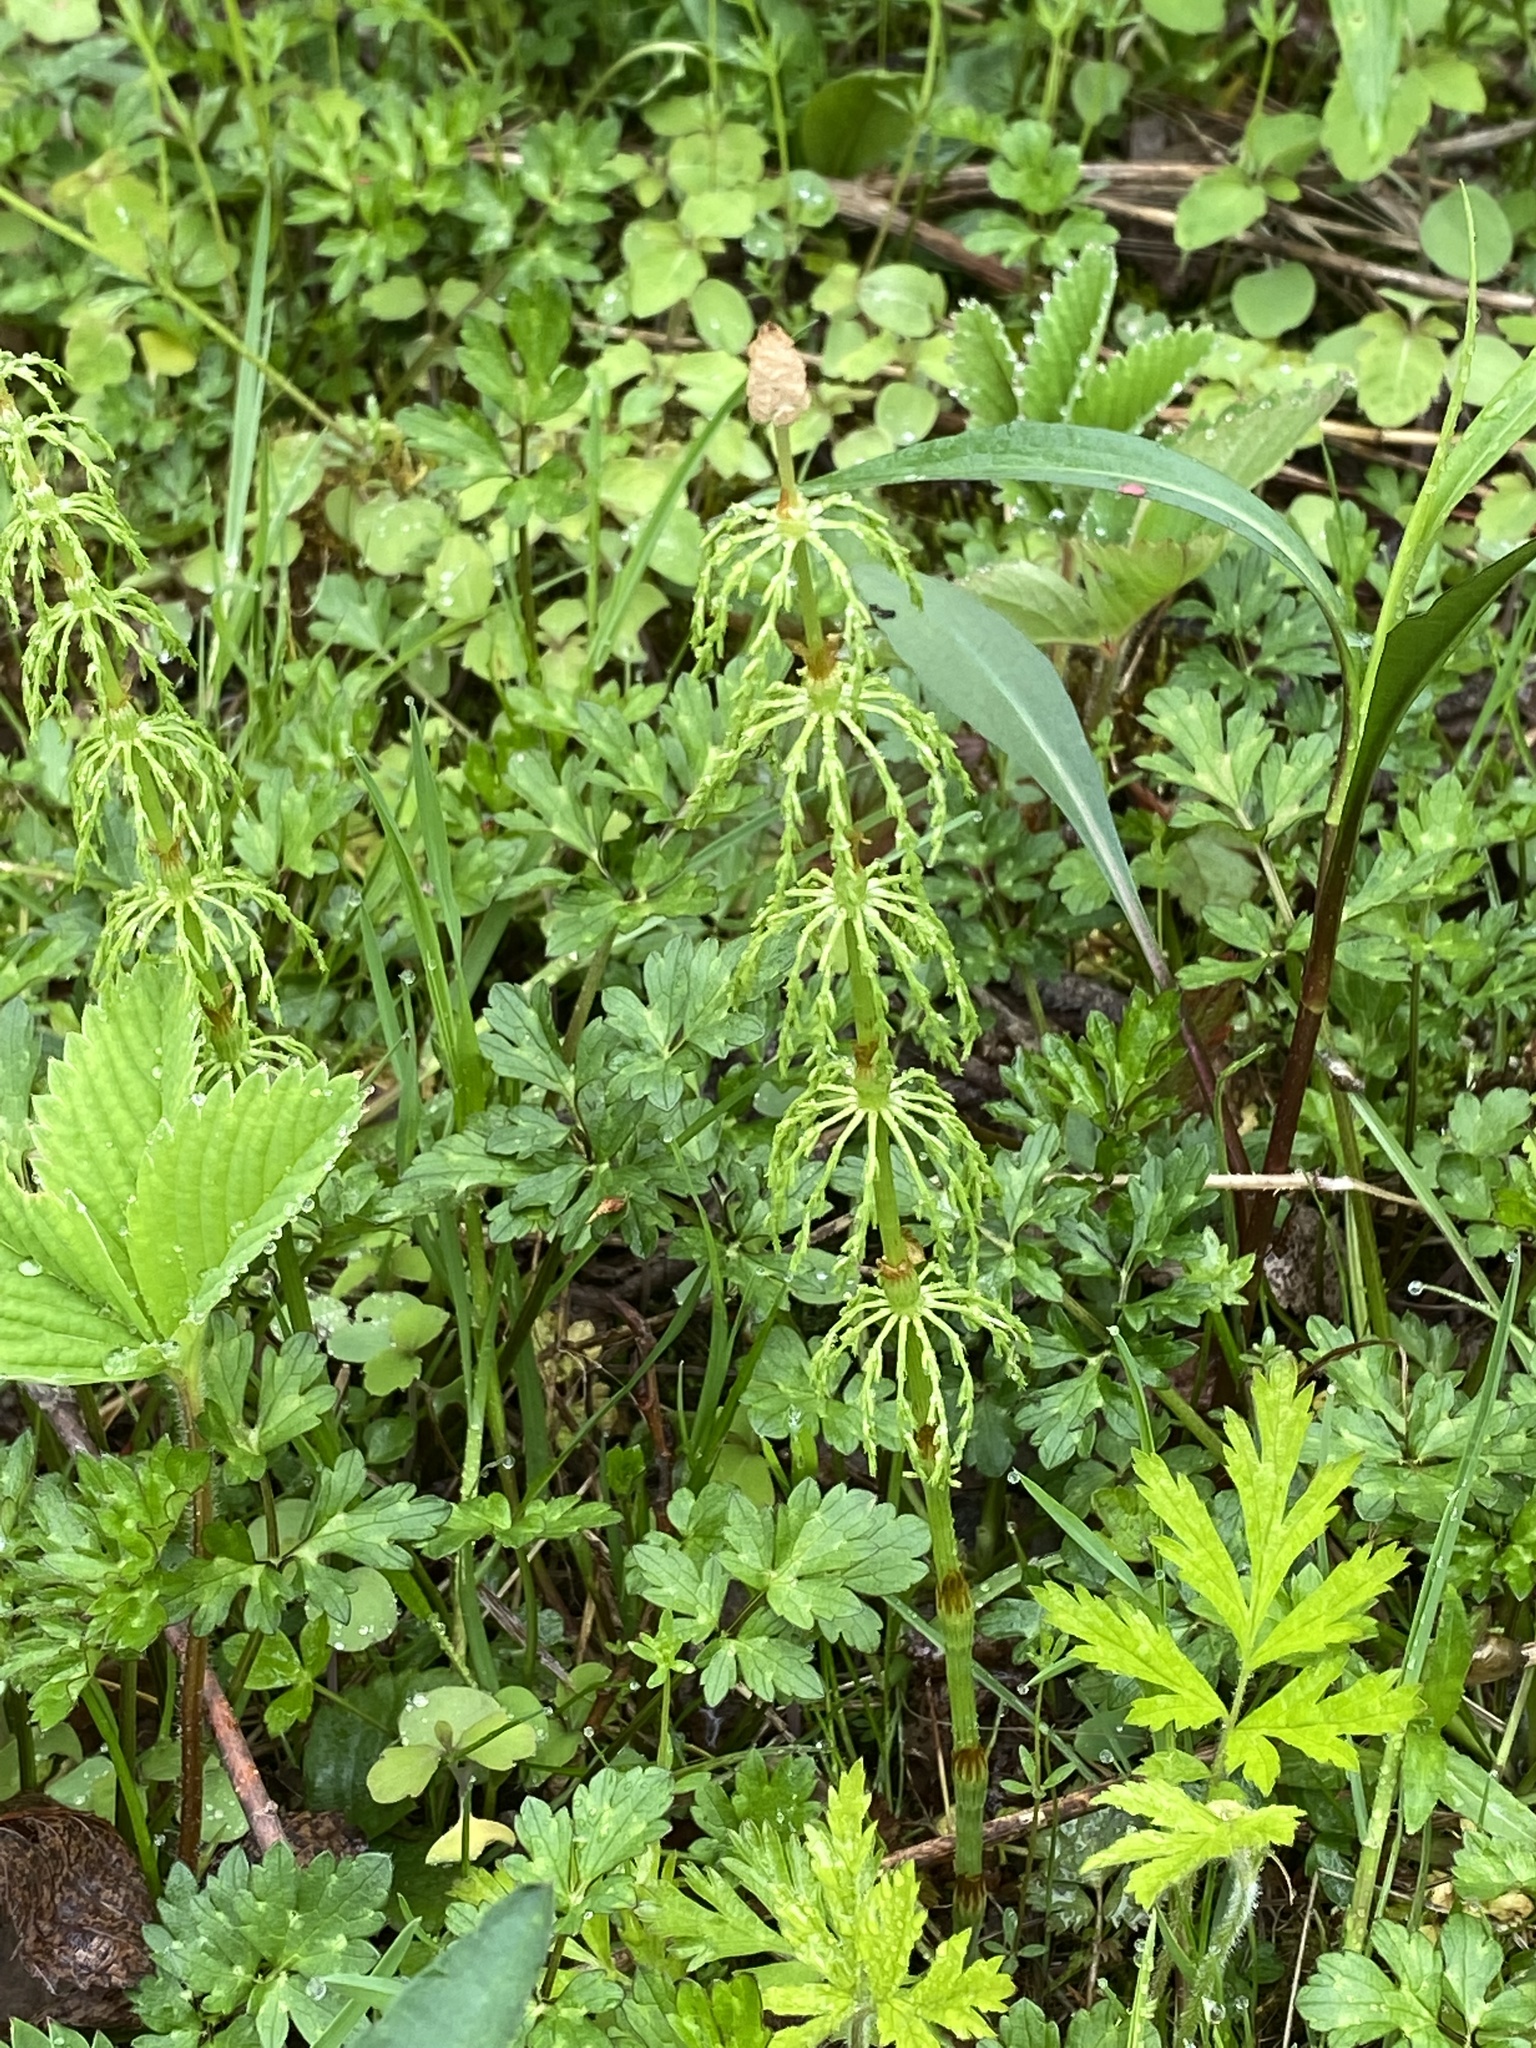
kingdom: Plantae
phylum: Tracheophyta
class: Polypodiopsida
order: Equisetales
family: Equisetaceae
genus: Equisetum
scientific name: Equisetum sylvaticum
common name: Wood horsetail
